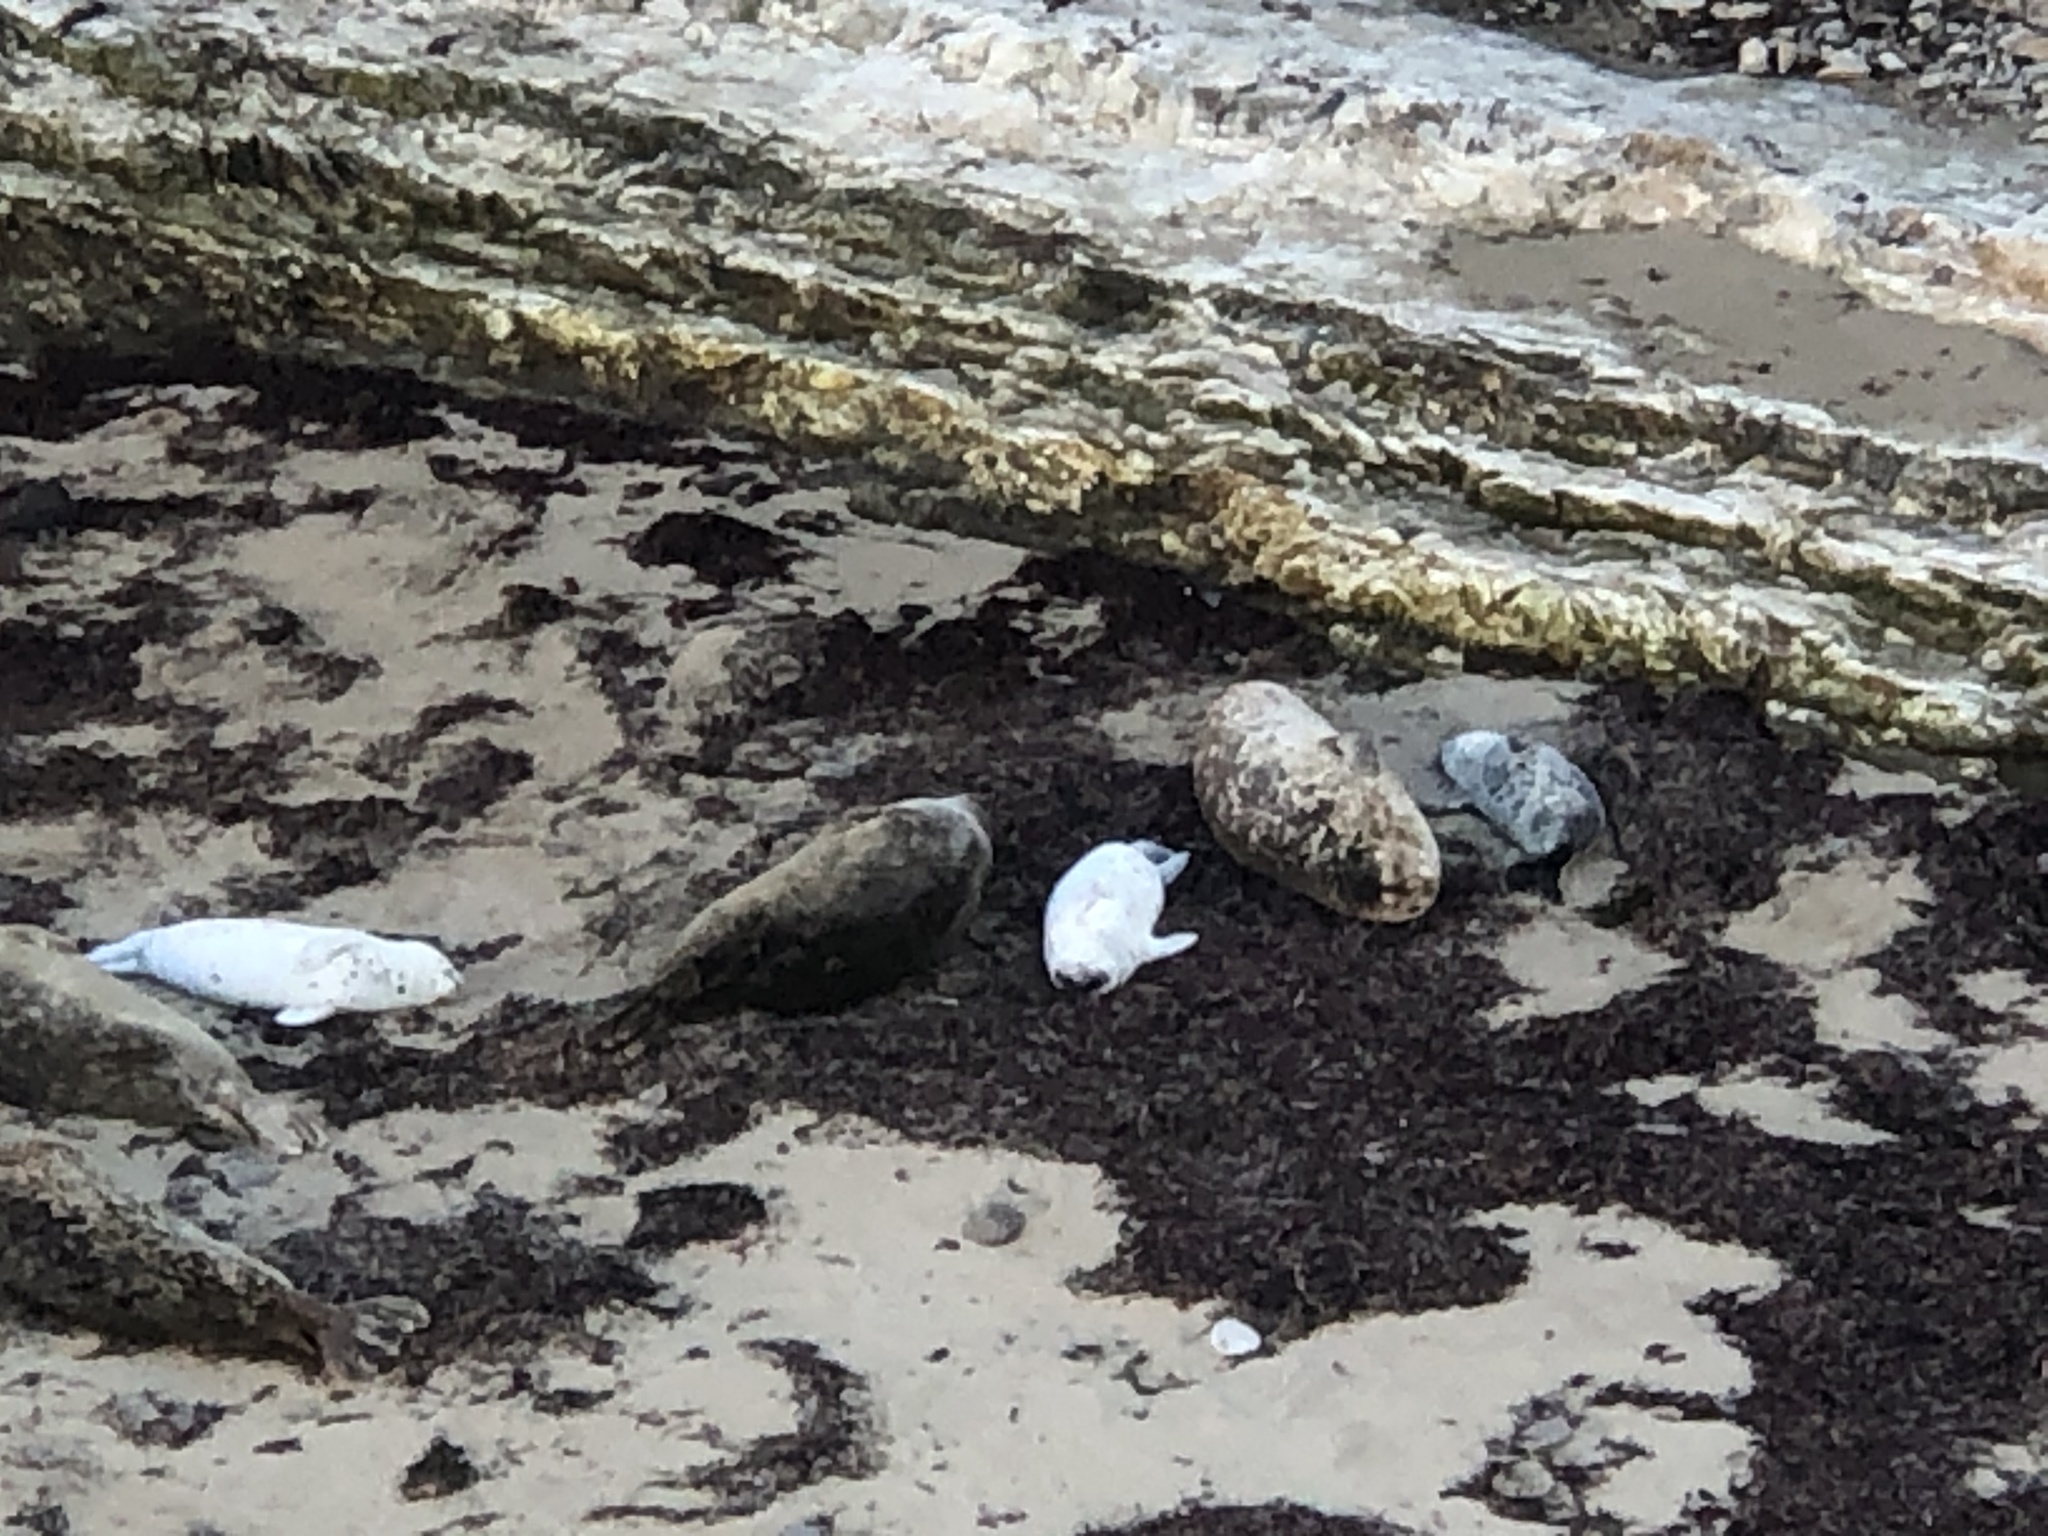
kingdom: Animalia
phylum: Chordata
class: Mammalia
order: Carnivora
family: Phocidae
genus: Phoca
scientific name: Phoca vitulina
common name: Harbor seal
